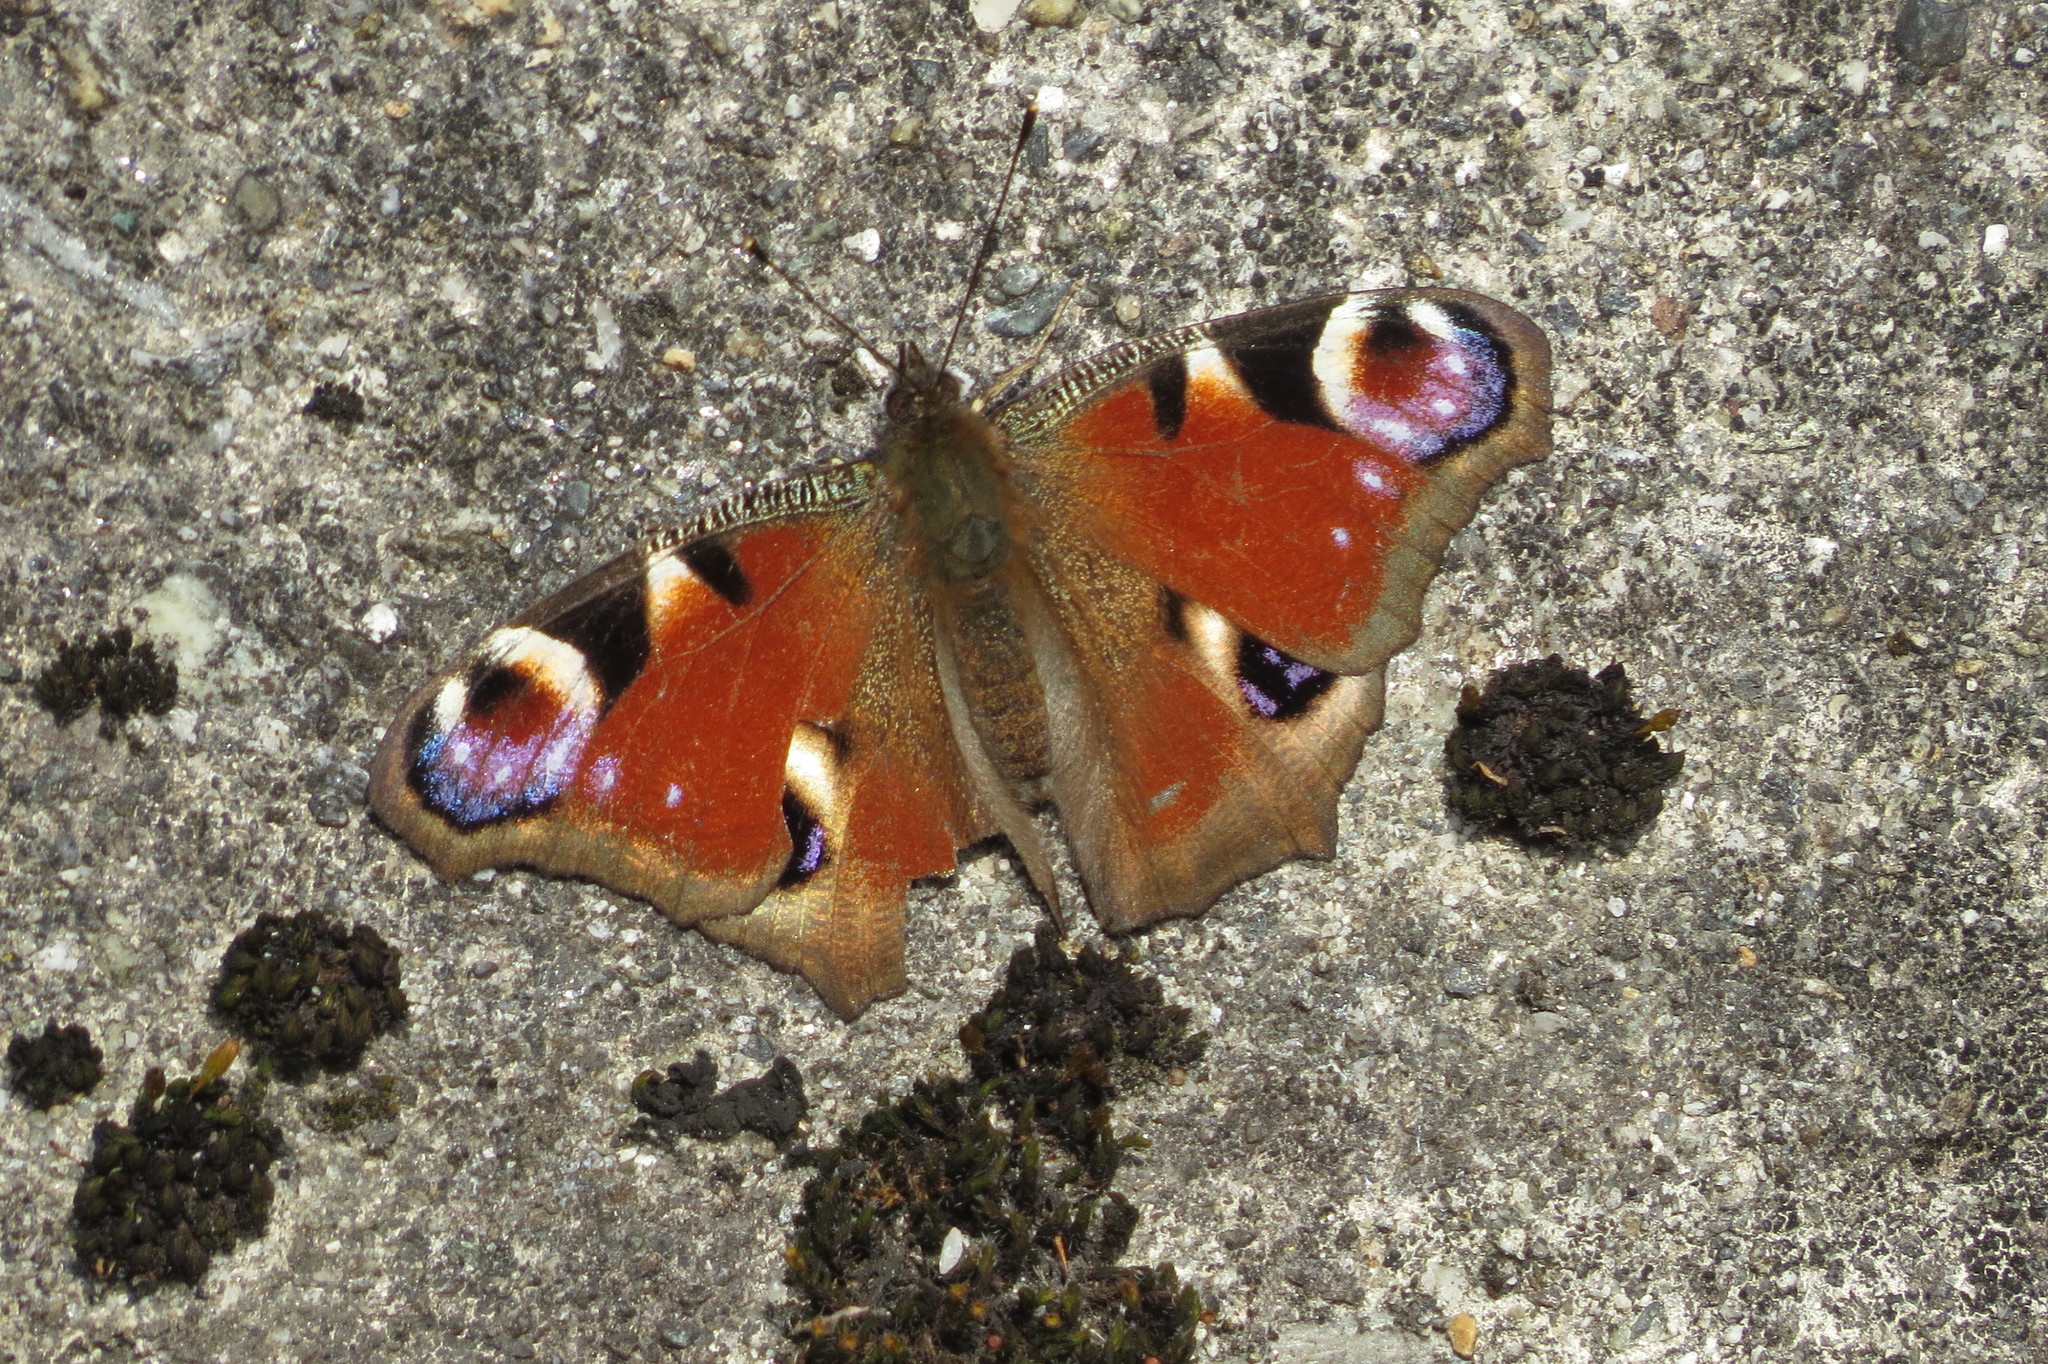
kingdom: Animalia
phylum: Arthropoda
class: Insecta
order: Lepidoptera
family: Nymphalidae
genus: Aglais
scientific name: Aglais io
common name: Peacock
